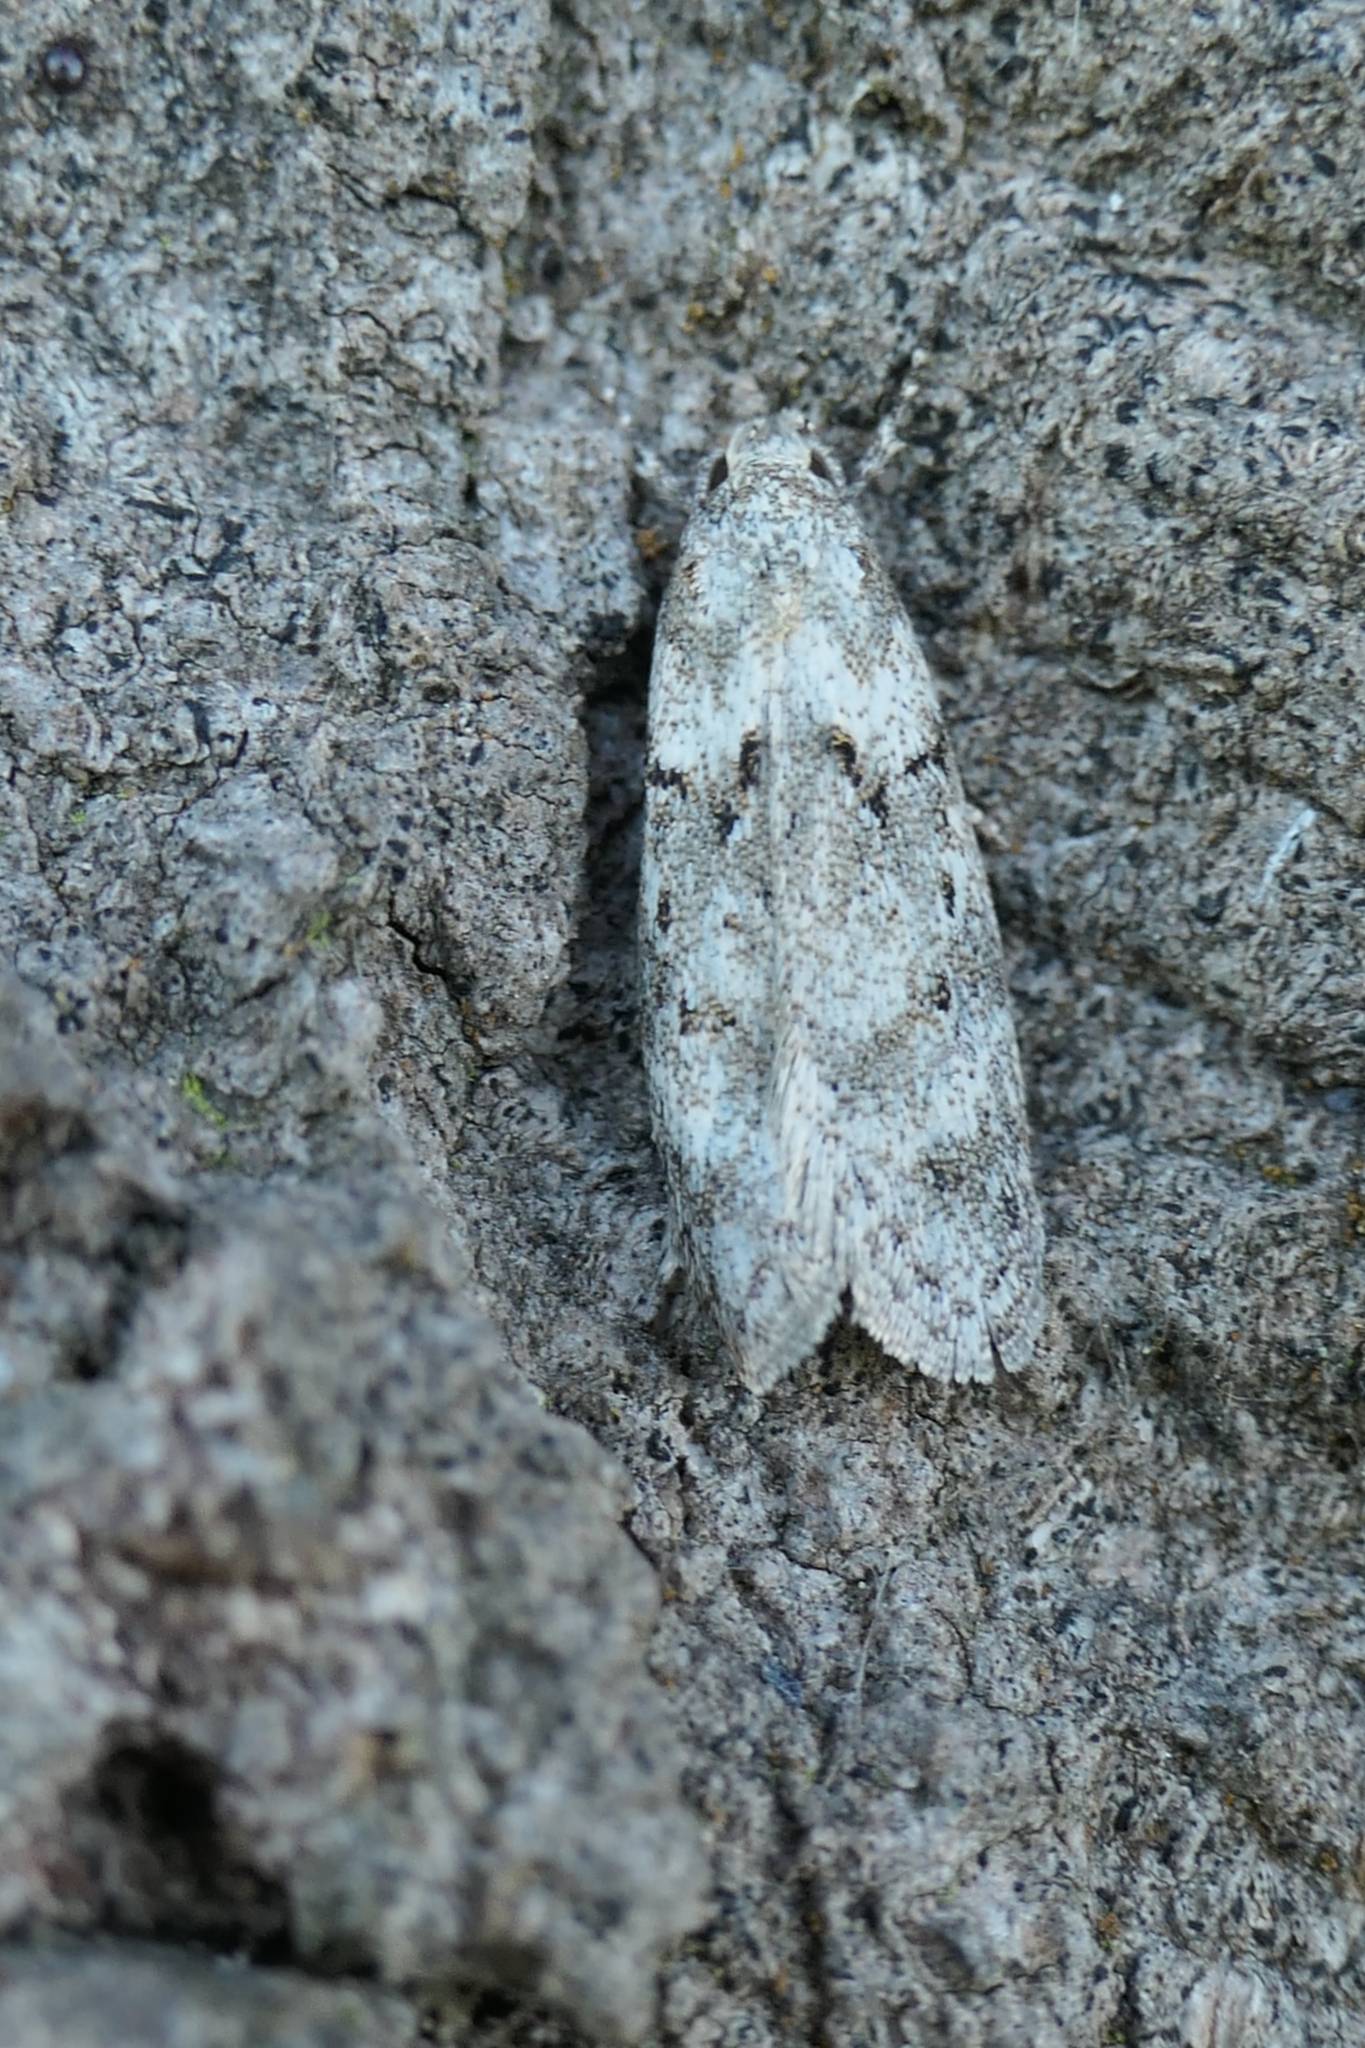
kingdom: Animalia
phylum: Arthropoda
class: Insecta
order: Lepidoptera
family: Oecophoridae
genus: Izatha
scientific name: Izatha convulsella
